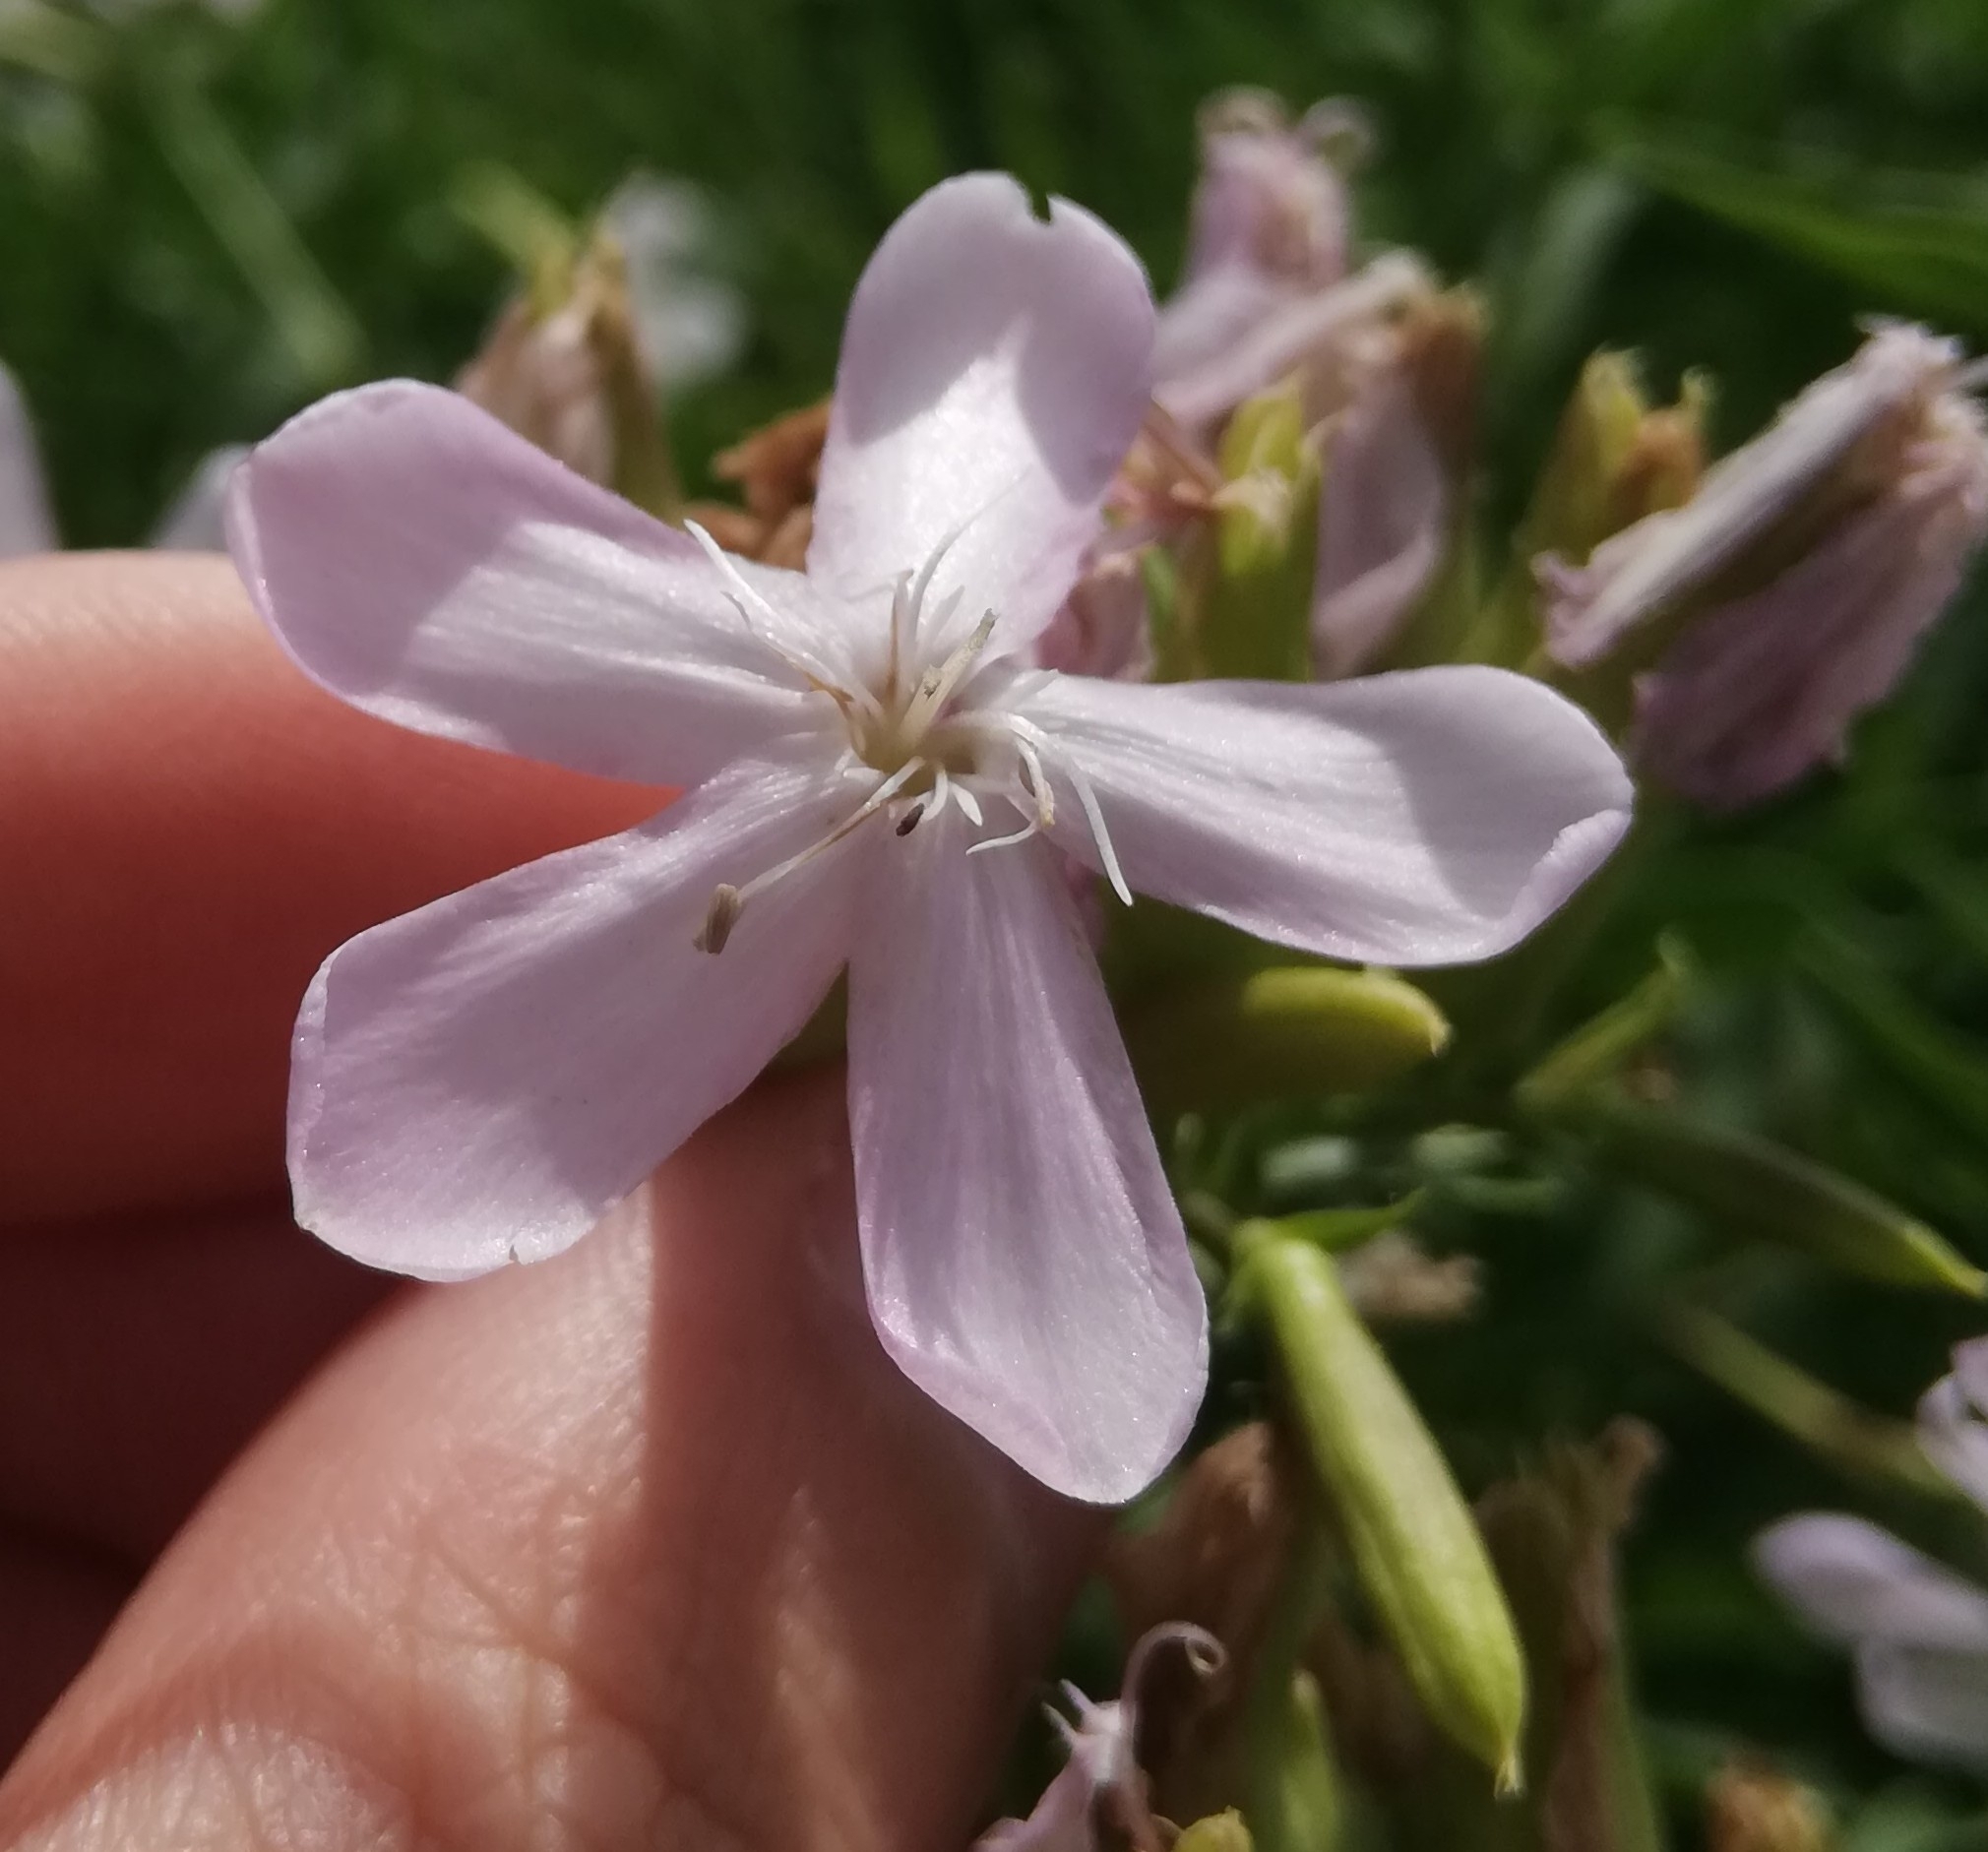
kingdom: Plantae
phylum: Tracheophyta
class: Magnoliopsida
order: Caryophyllales
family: Caryophyllaceae
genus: Saponaria
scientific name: Saponaria officinalis
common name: Soapwort
